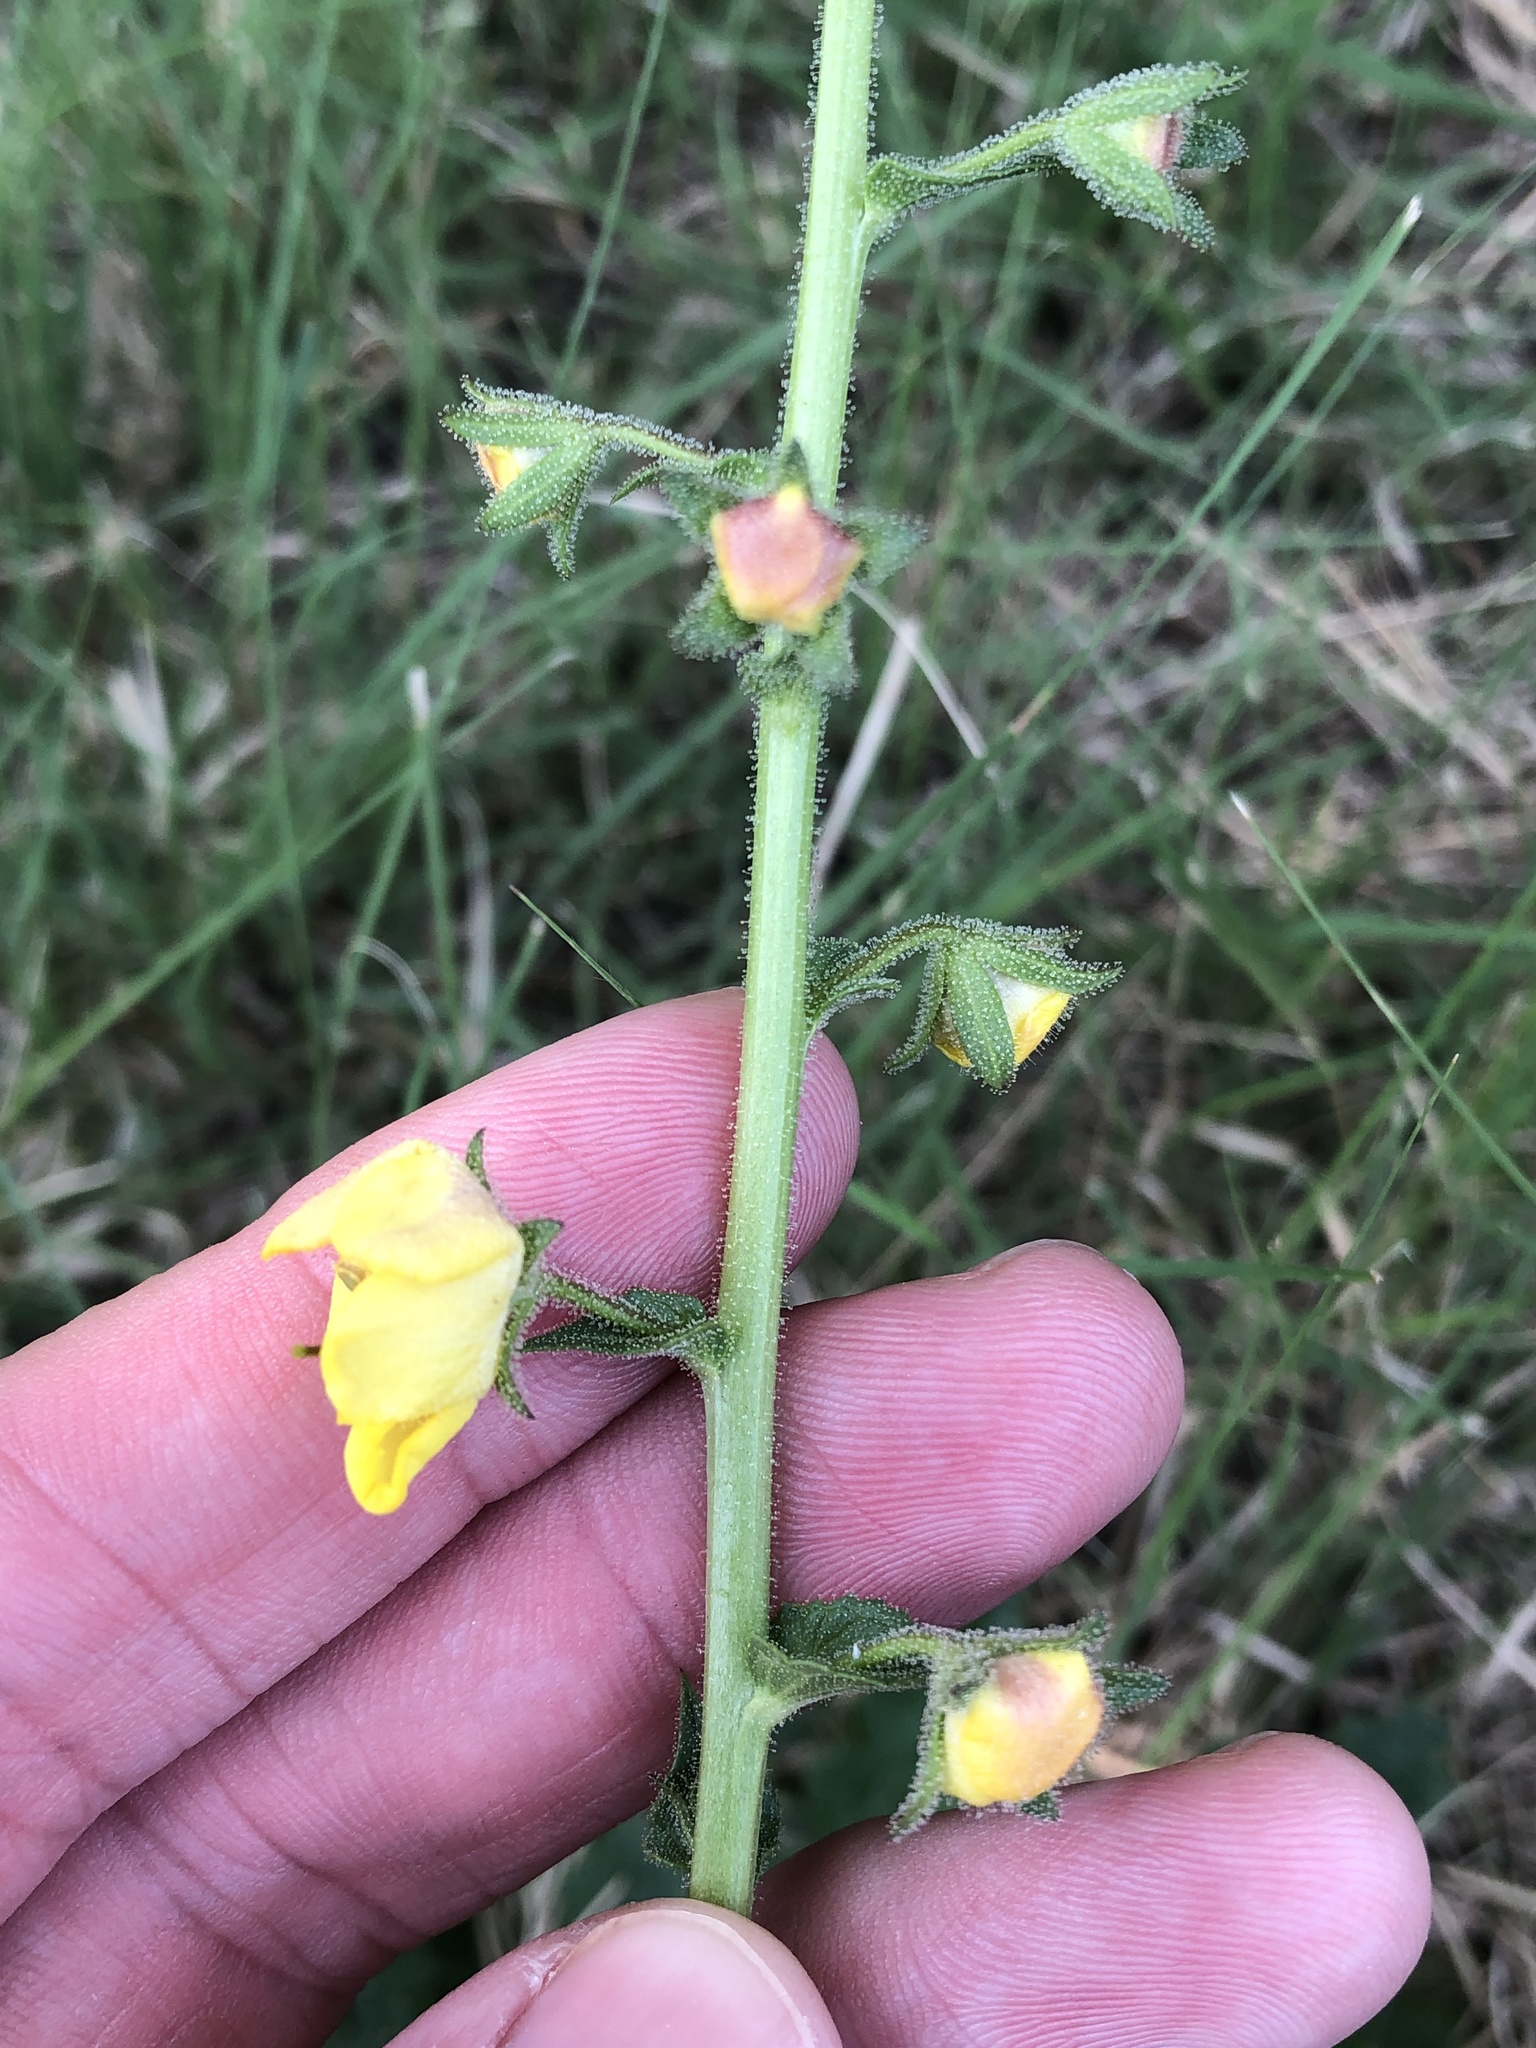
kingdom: Plantae
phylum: Tracheophyta
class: Magnoliopsida
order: Lamiales
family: Scrophulariaceae
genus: Verbascum
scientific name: Verbascum blattaria
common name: Moth mullein
